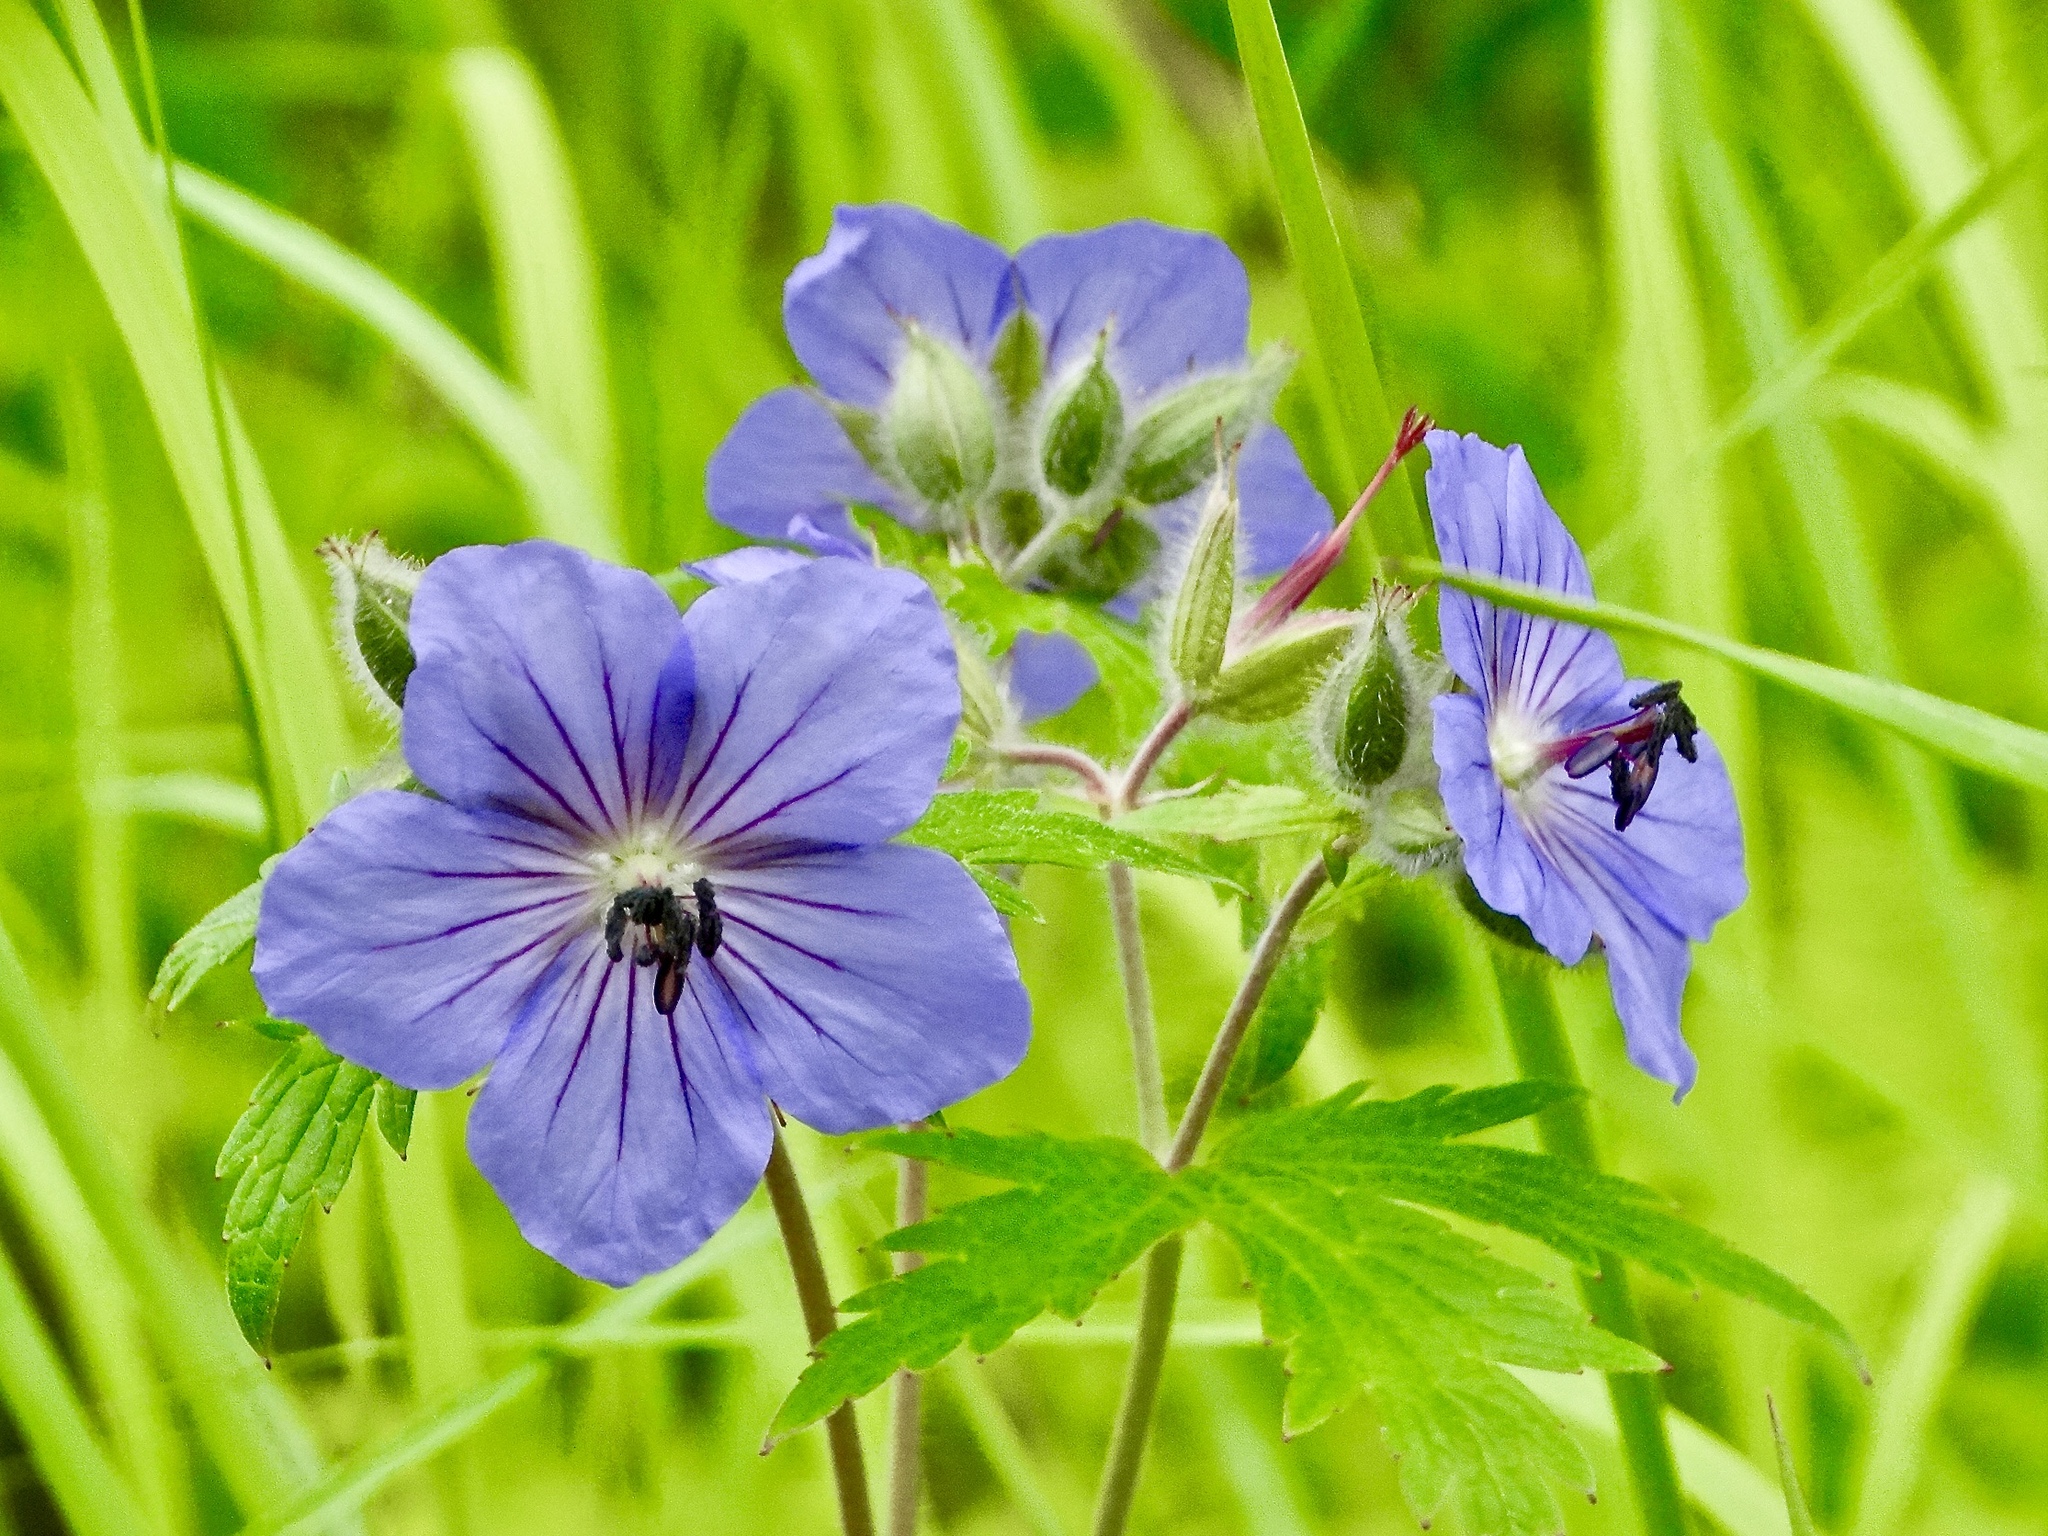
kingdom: Plantae
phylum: Tracheophyta
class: Magnoliopsida
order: Geraniales
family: Geraniaceae
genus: Geranium
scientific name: Geranium erianthum
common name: Northern crane's-bill
